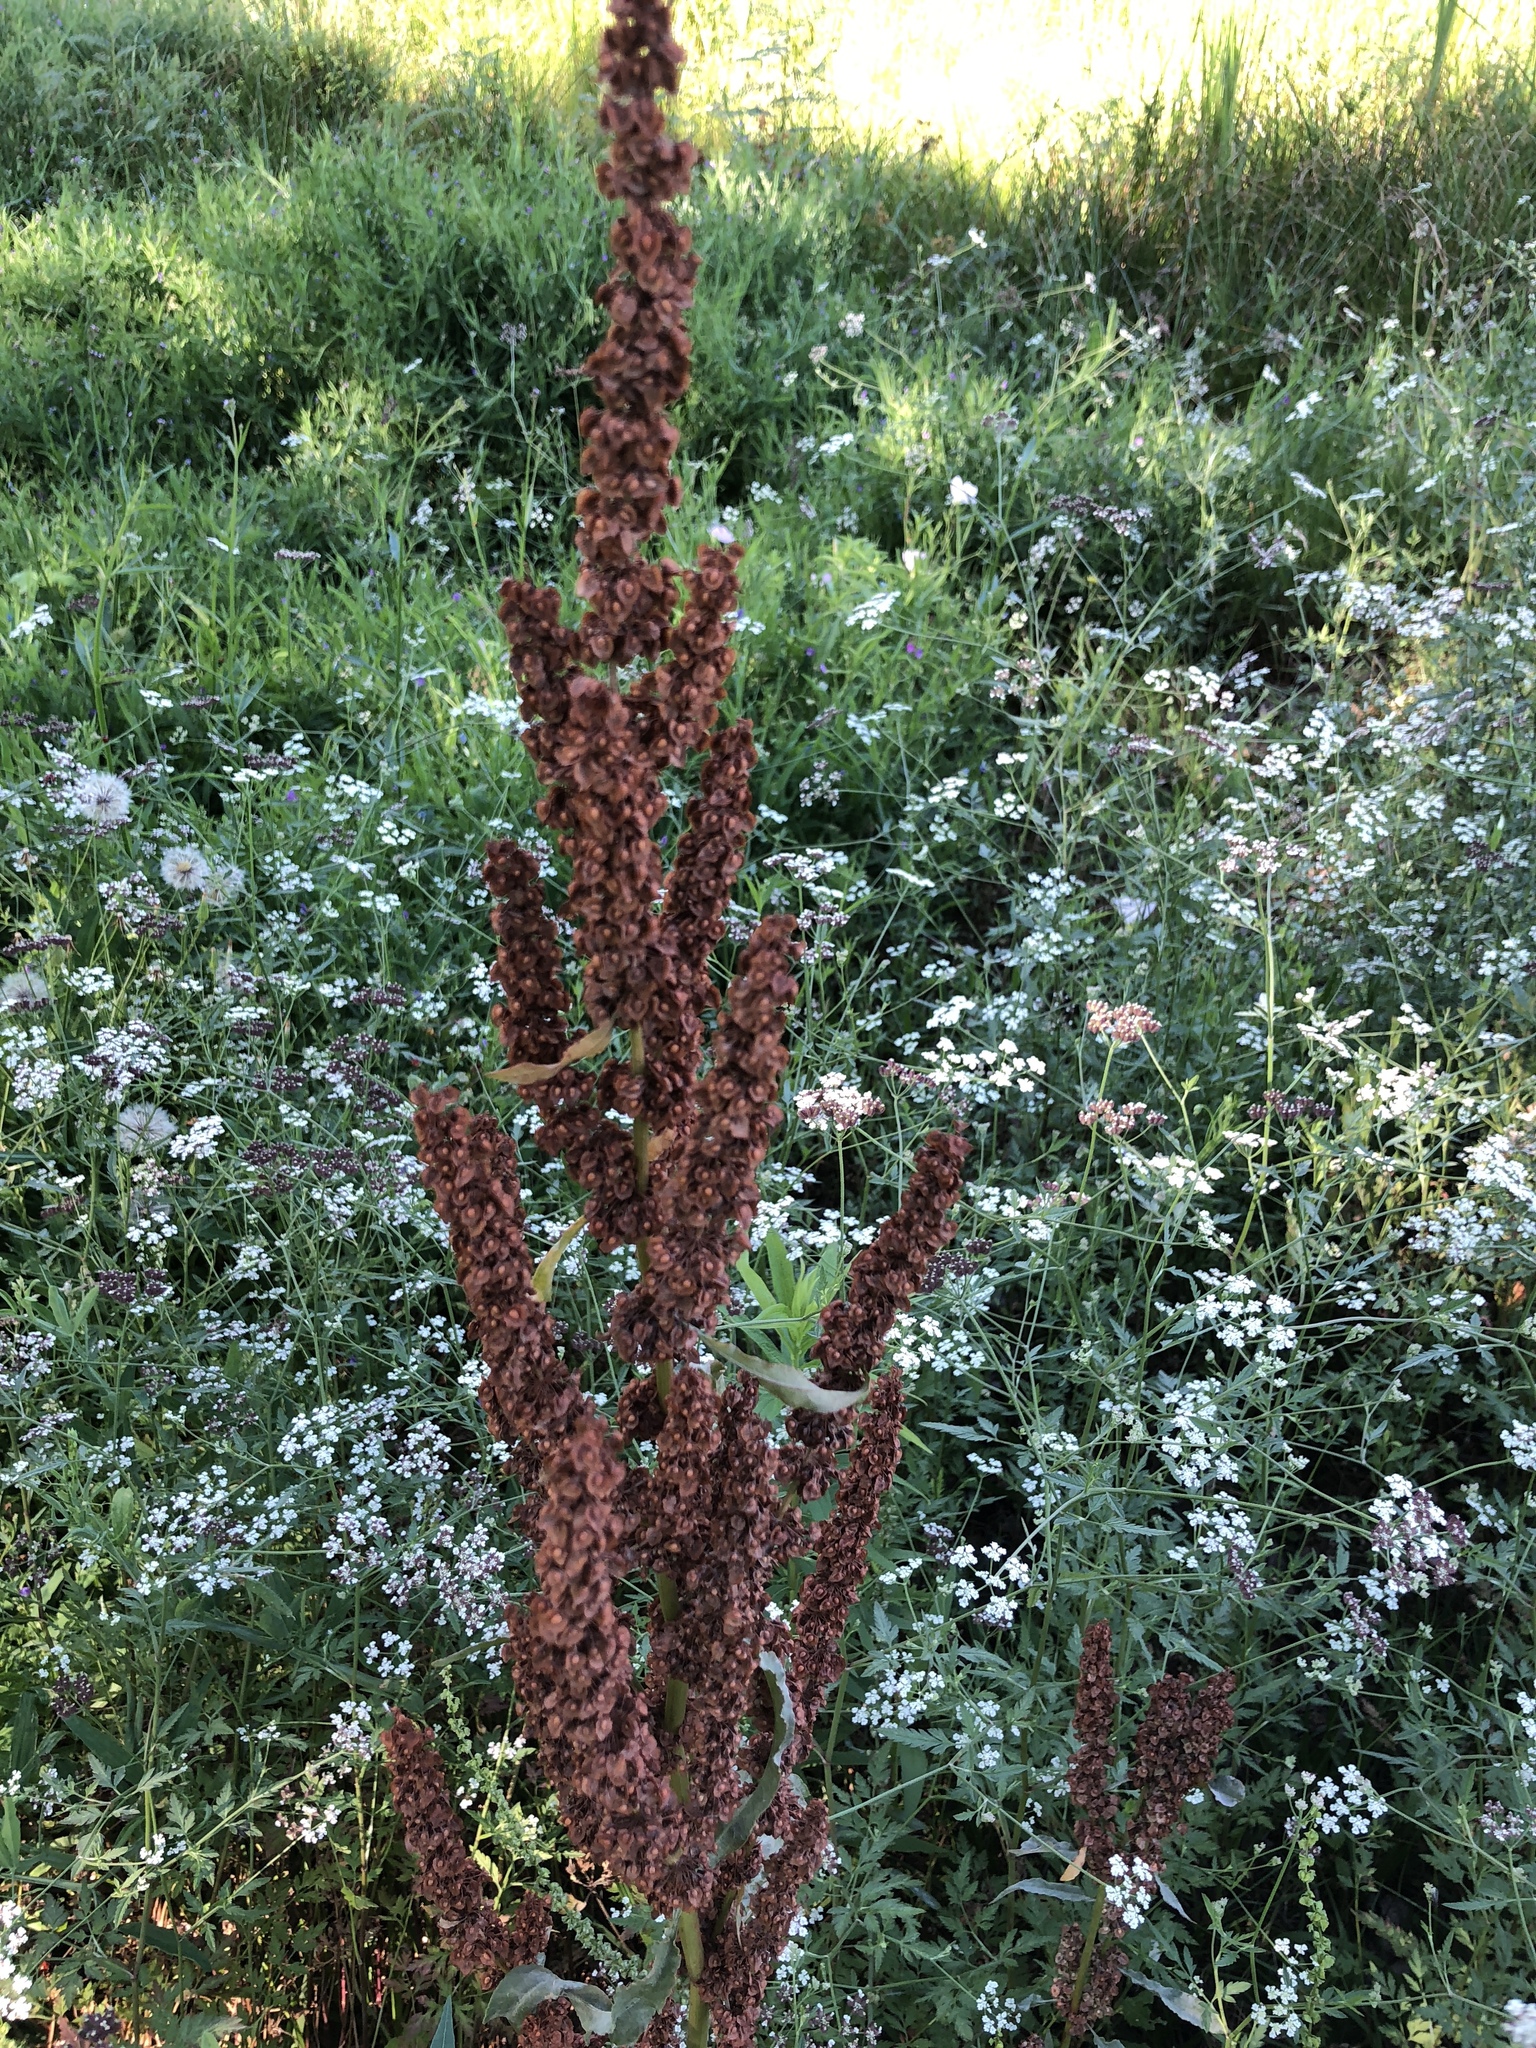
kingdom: Plantae
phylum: Tracheophyta
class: Magnoliopsida
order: Caryophyllales
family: Polygonaceae
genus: Rumex
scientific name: Rumex crispus
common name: Curled dock
